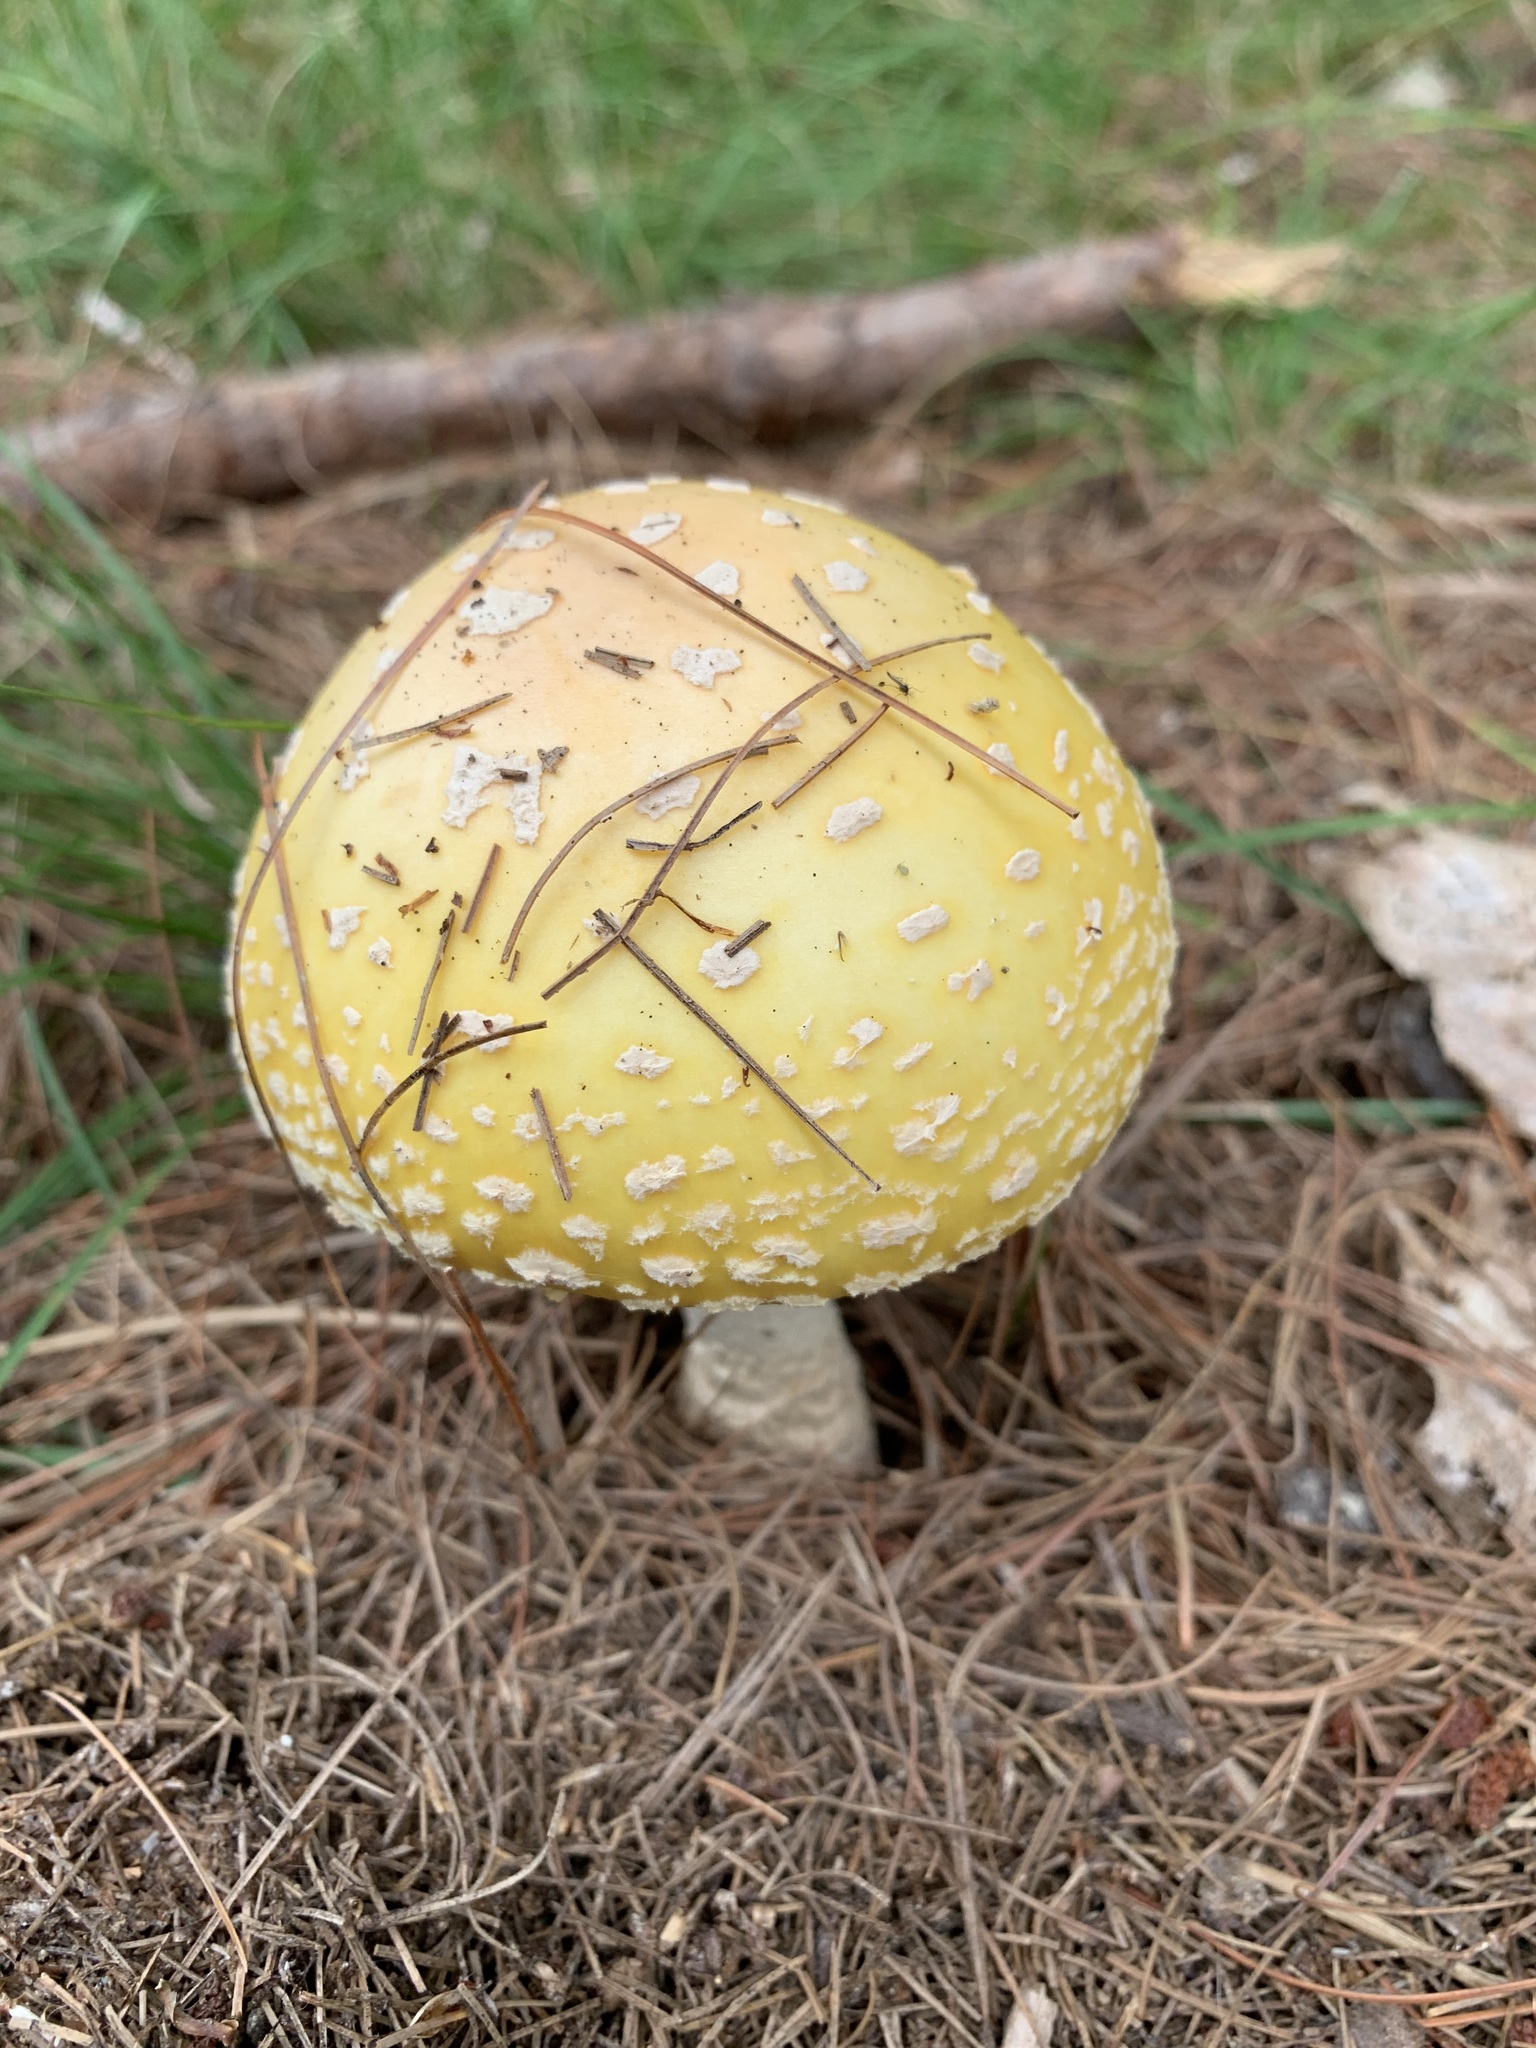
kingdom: Fungi
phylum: Basidiomycota
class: Agaricomycetes
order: Agaricales
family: Amanitaceae
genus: Amanita
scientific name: Amanita muscaria
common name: Fly agaric
